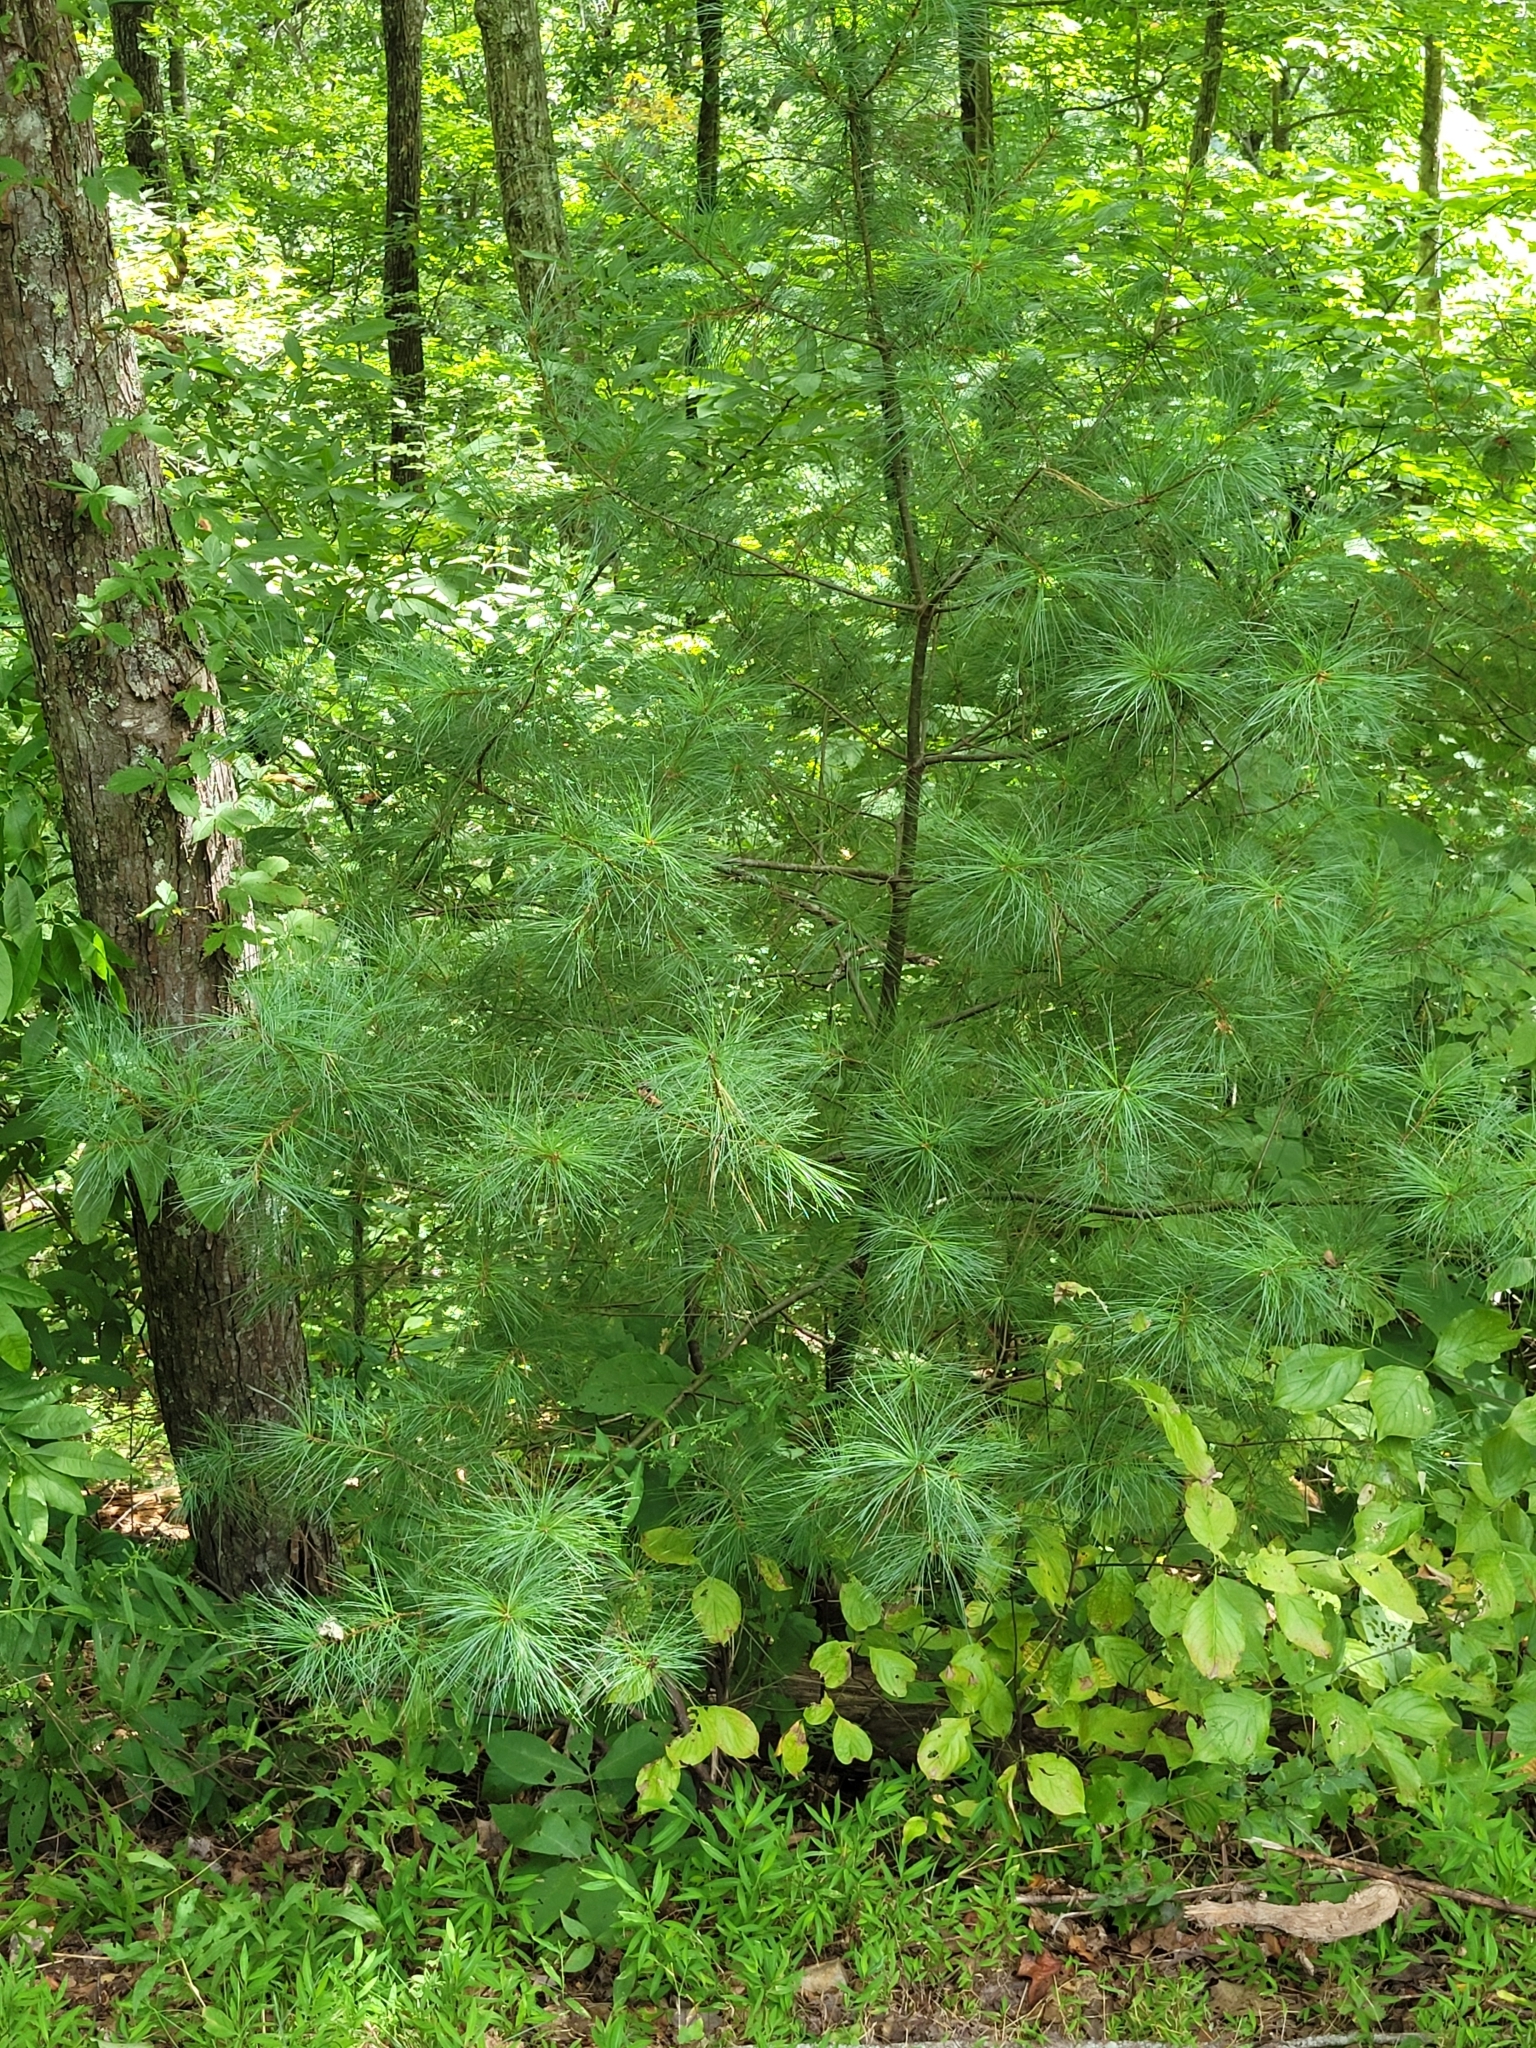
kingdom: Plantae
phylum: Tracheophyta
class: Pinopsida
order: Pinales
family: Pinaceae
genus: Pinus
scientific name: Pinus strobus
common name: Weymouth pine
